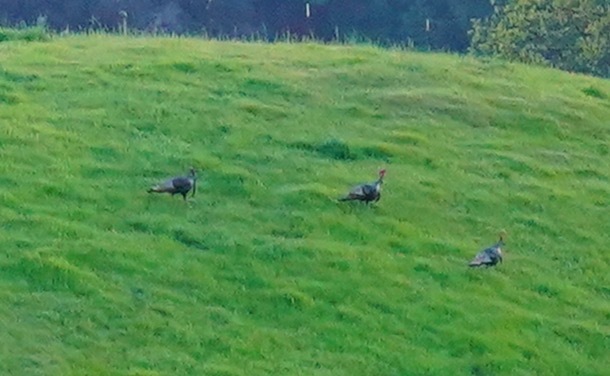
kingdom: Animalia
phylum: Chordata
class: Aves
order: Galliformes
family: Phasianidae
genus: Meleagris
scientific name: Meleagris gallopavo
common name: Wild turkey
